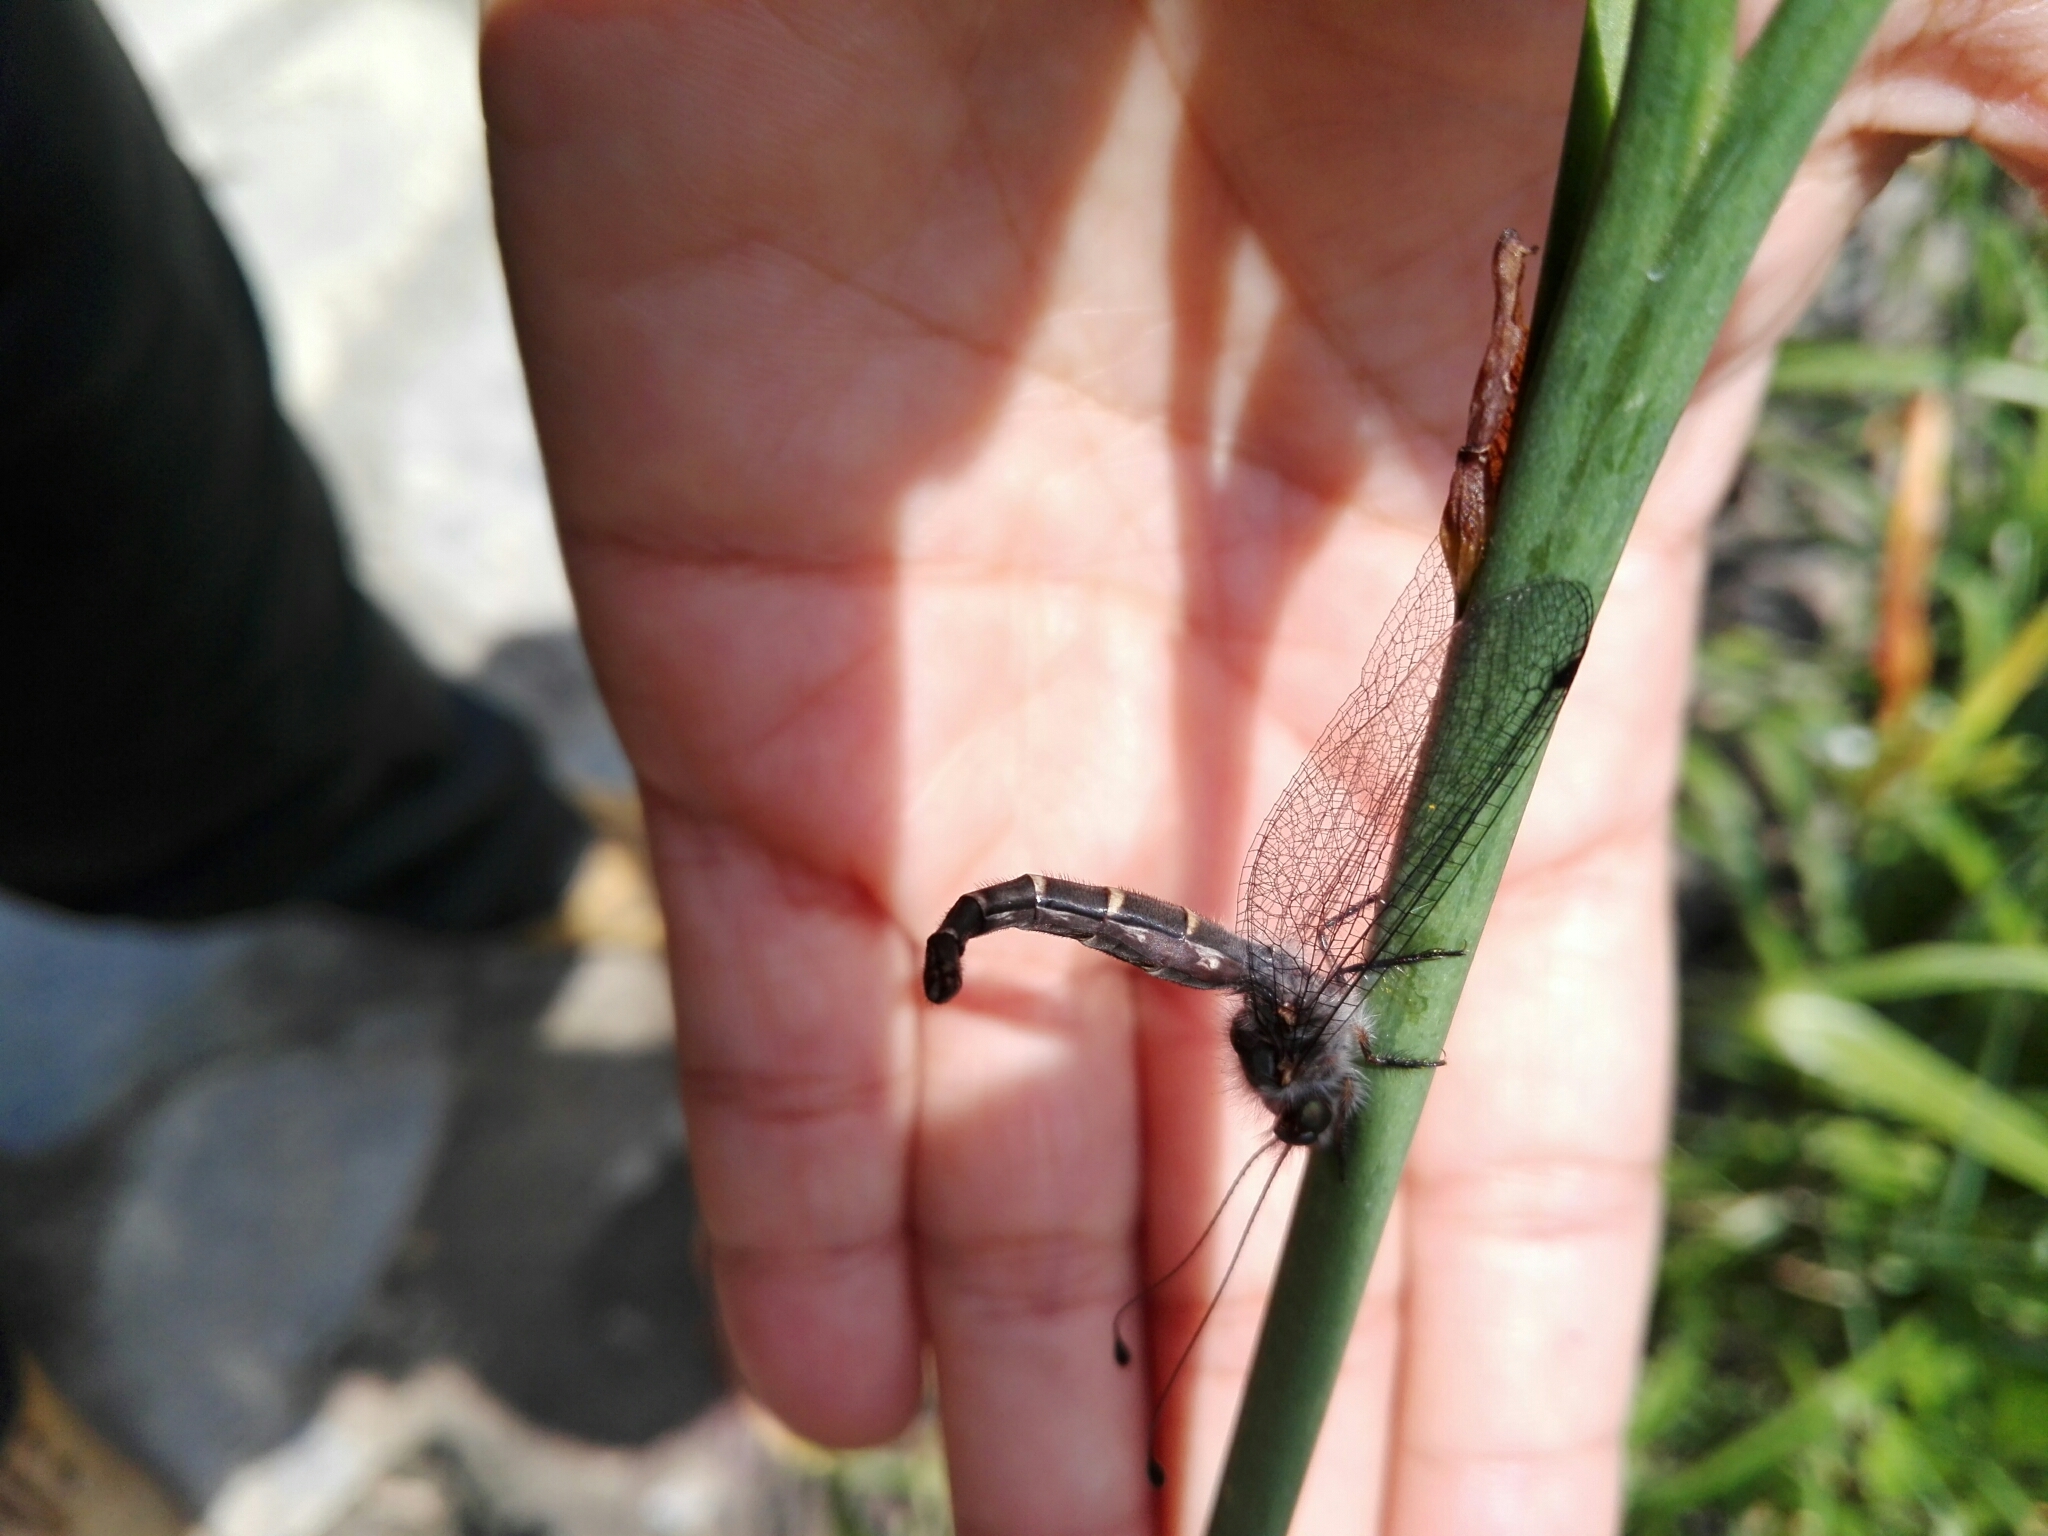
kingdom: Animalia
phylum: Arthropoda
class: Insecta
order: Neuroptera
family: Ascalaphidae
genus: Ululodes
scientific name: Ululodes macleayanus
